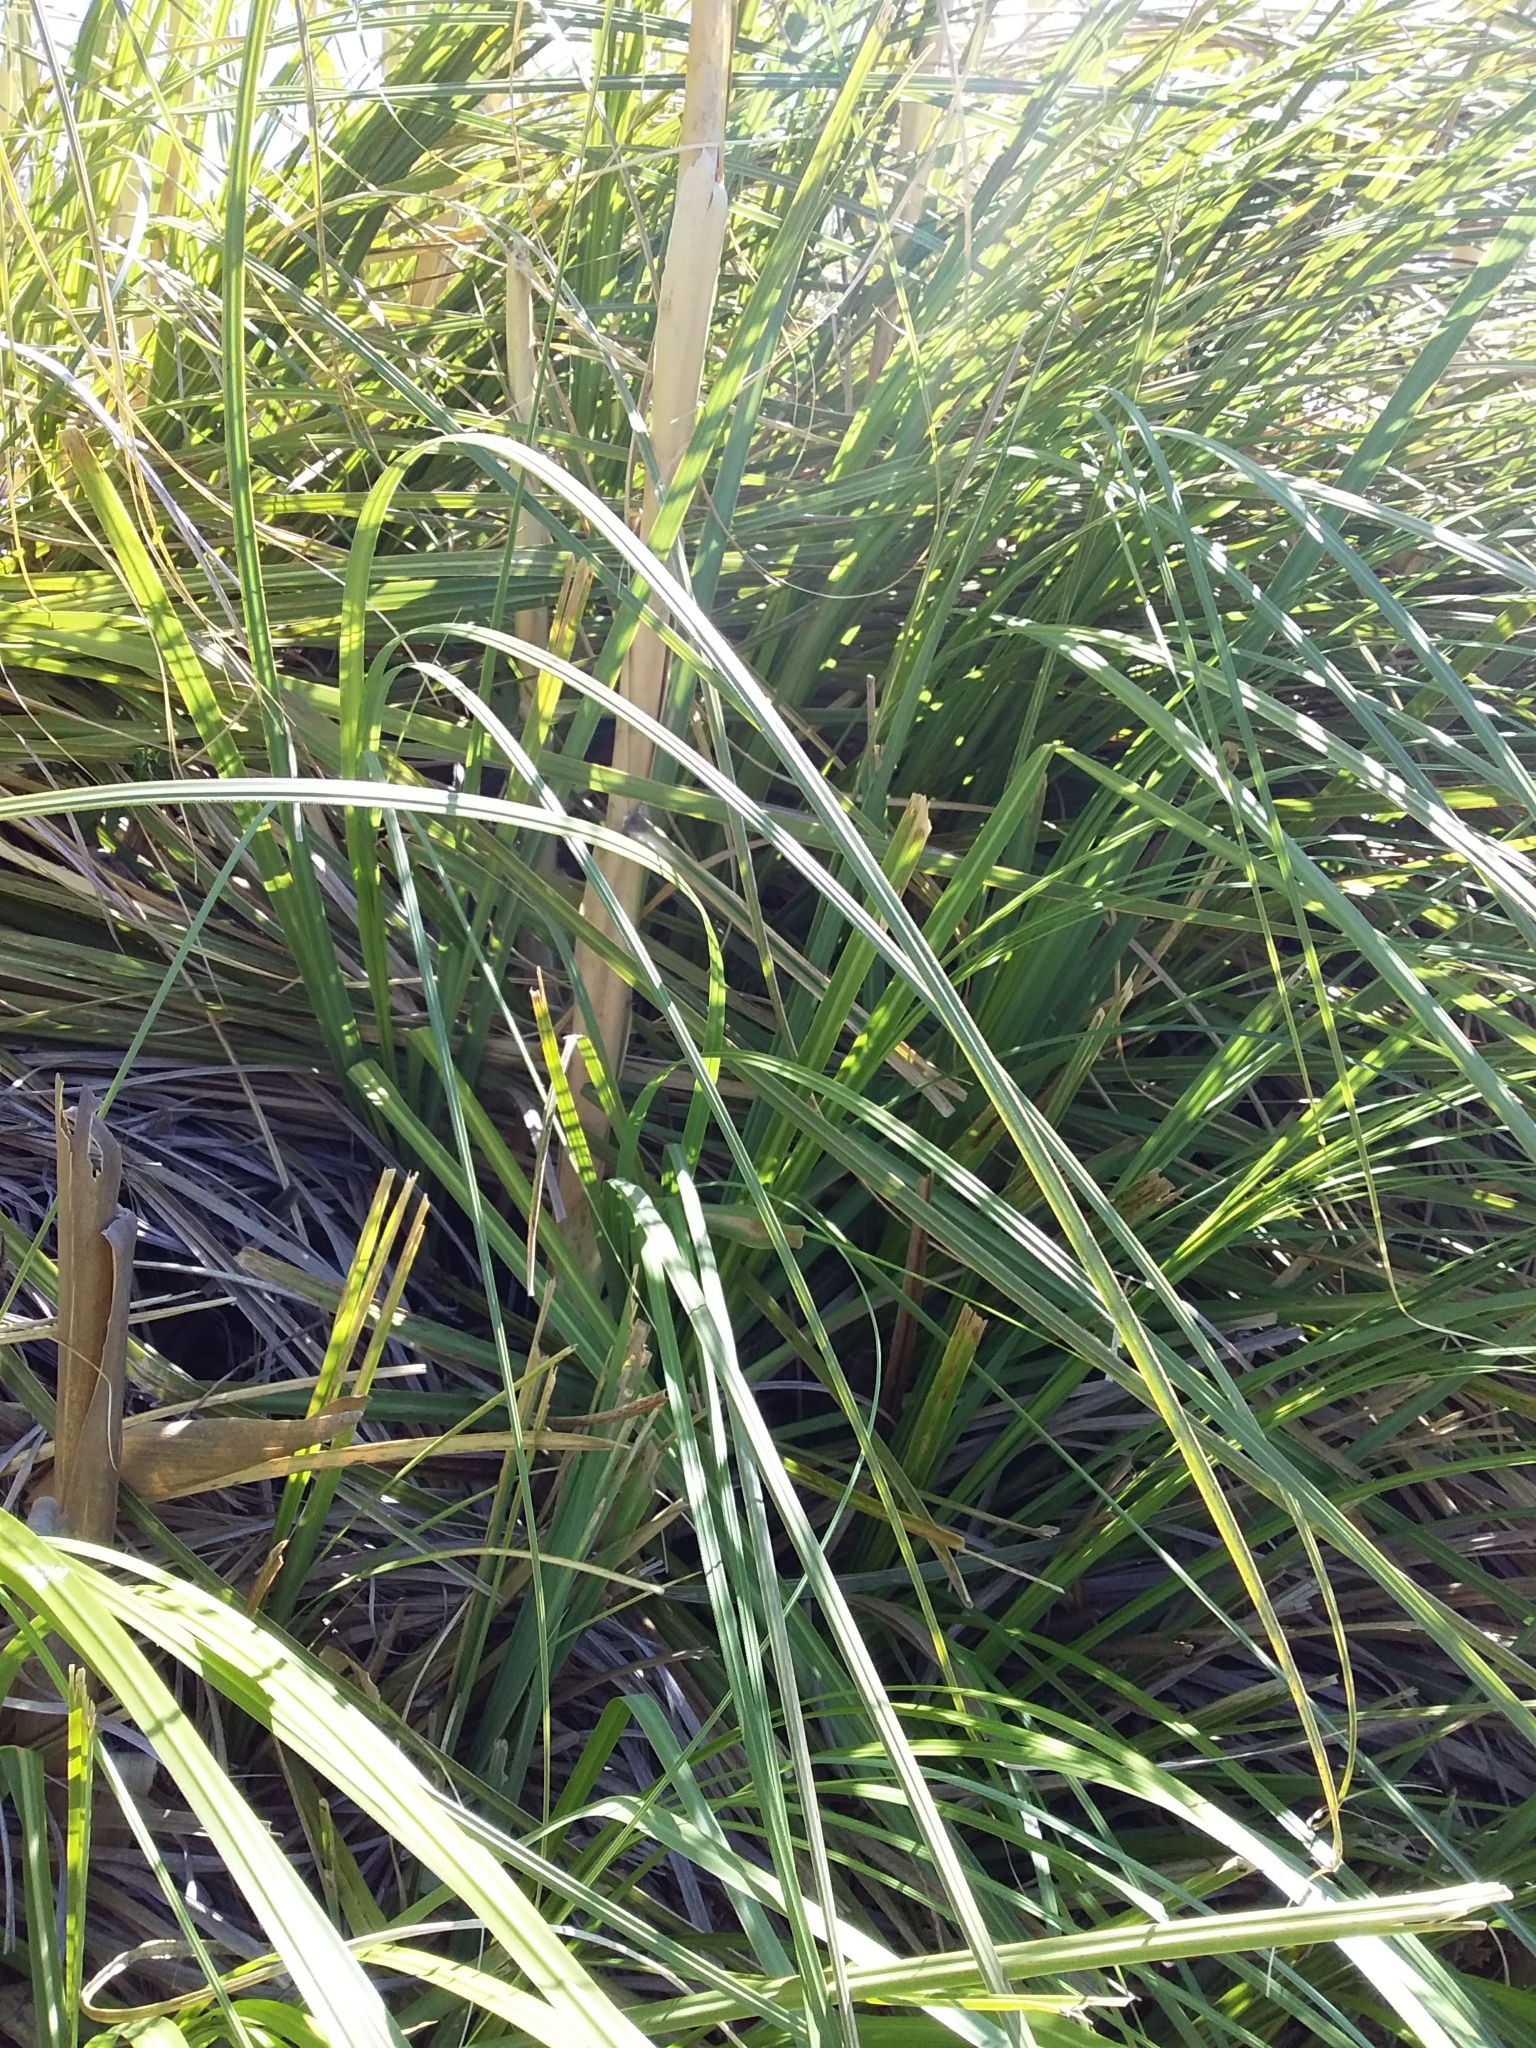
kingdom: Plantae
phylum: Tracheophyta
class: Liliopsida
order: Poales
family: Poaceae
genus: Cortaderia
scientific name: Cortaderia selloana
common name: Uruguayan pampas grass
